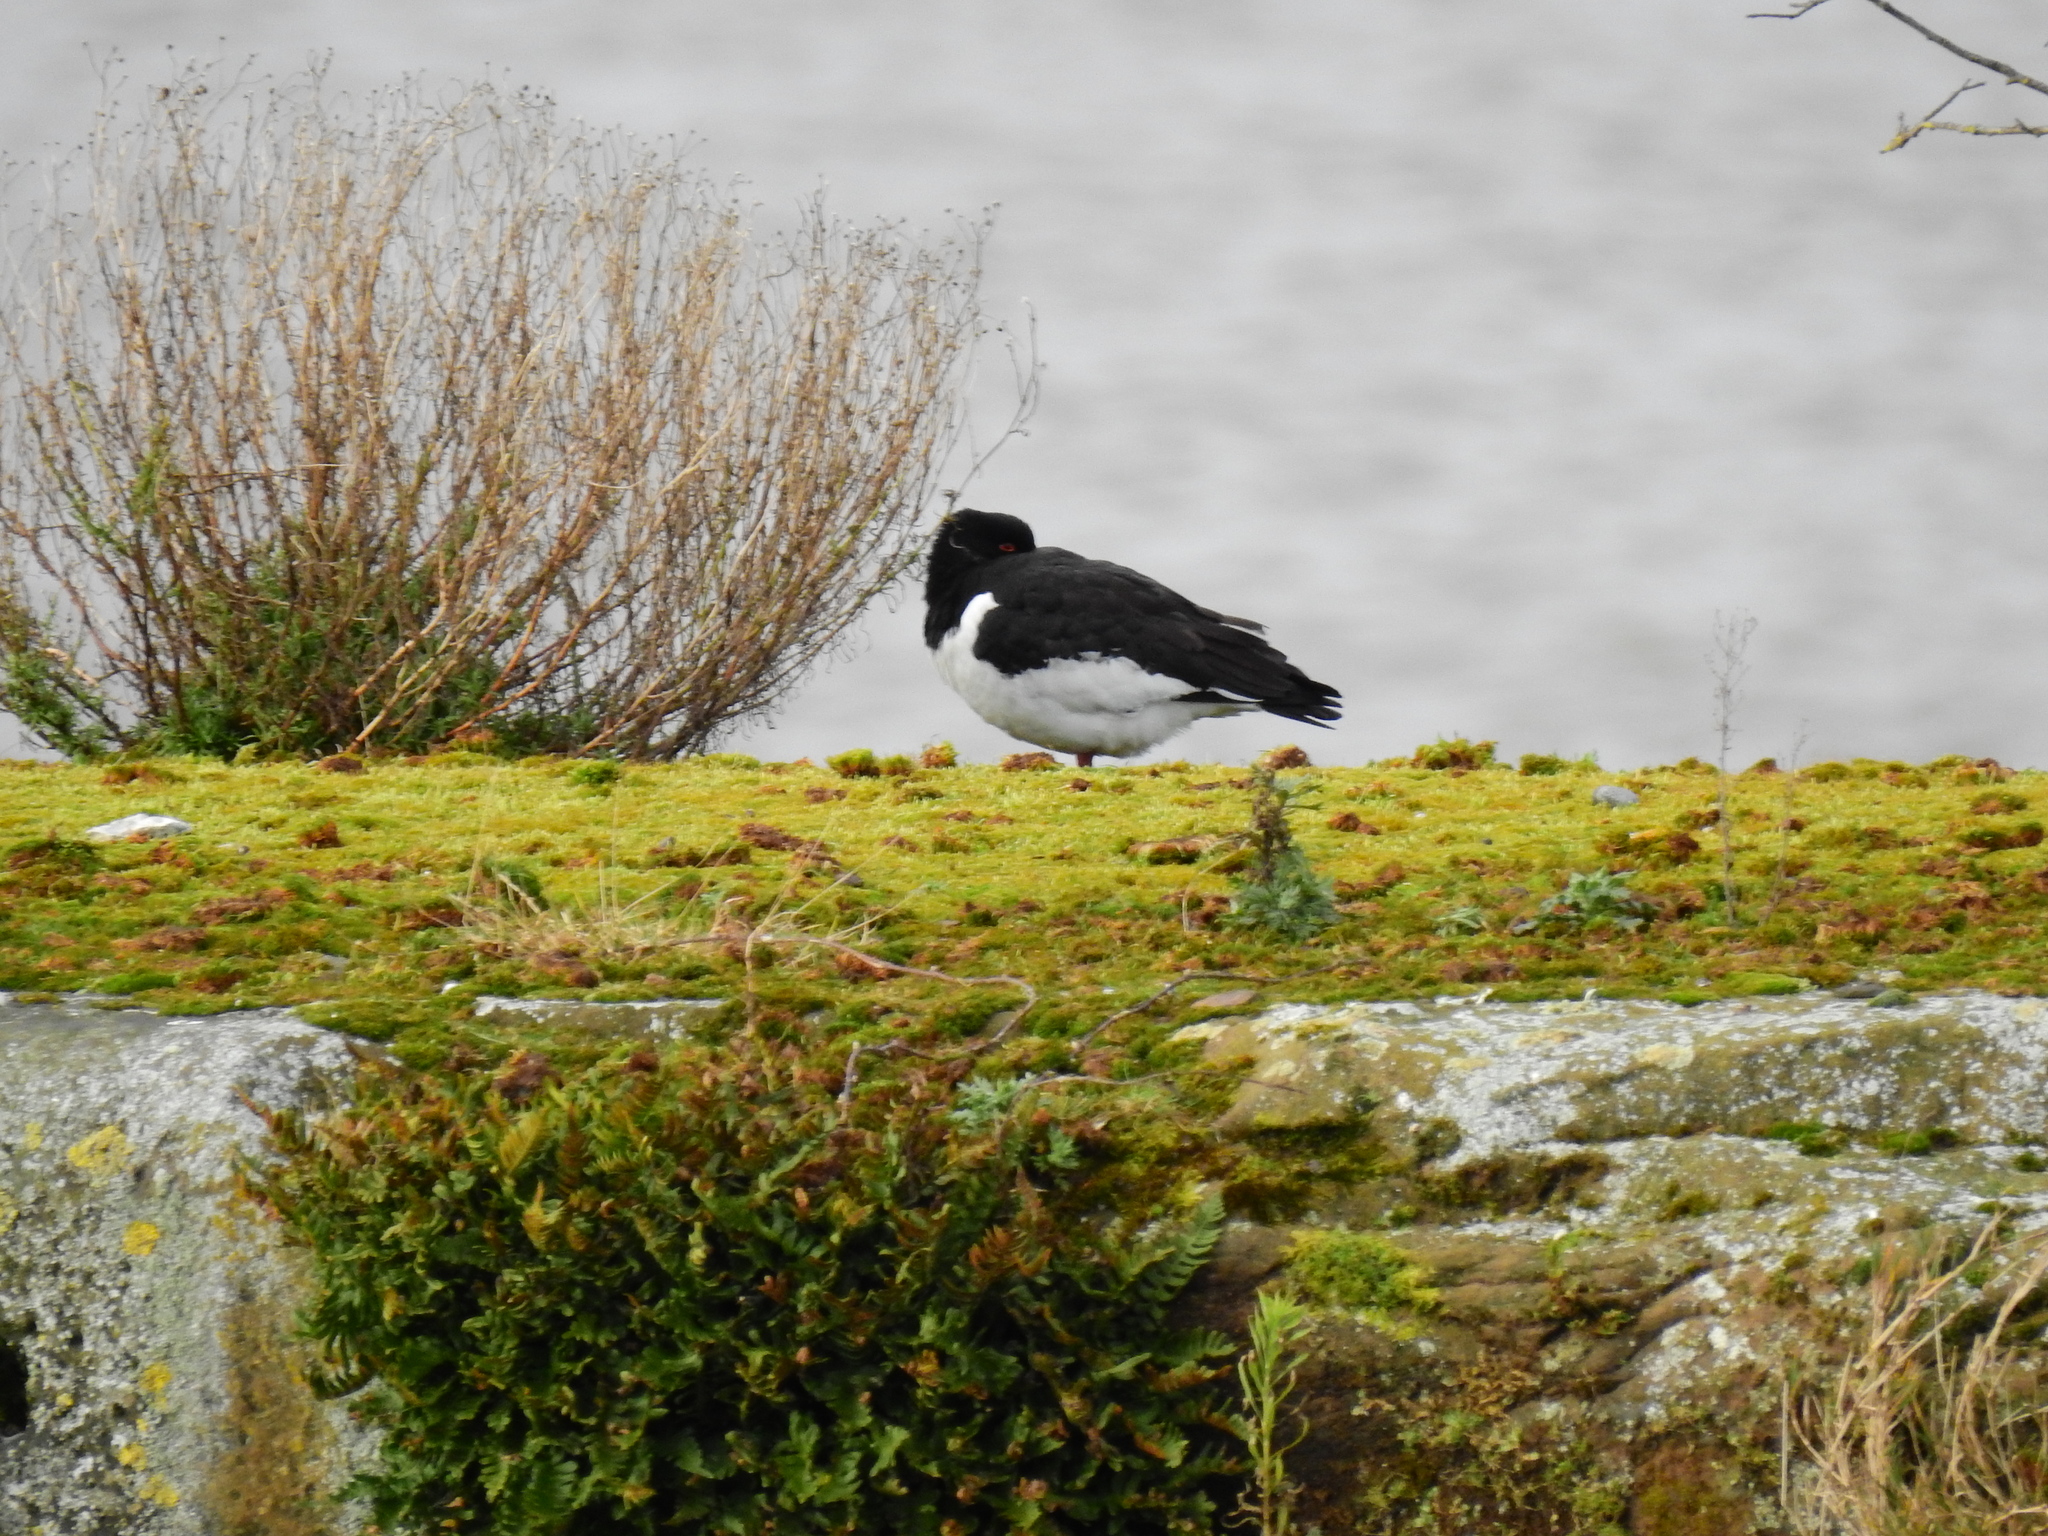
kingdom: Animalia
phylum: Chordata
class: Aves
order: Charadriiformes
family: Haematopodidae
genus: Haematopus
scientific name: Haematopus ostralegus
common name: Eurasian oystercatcher
